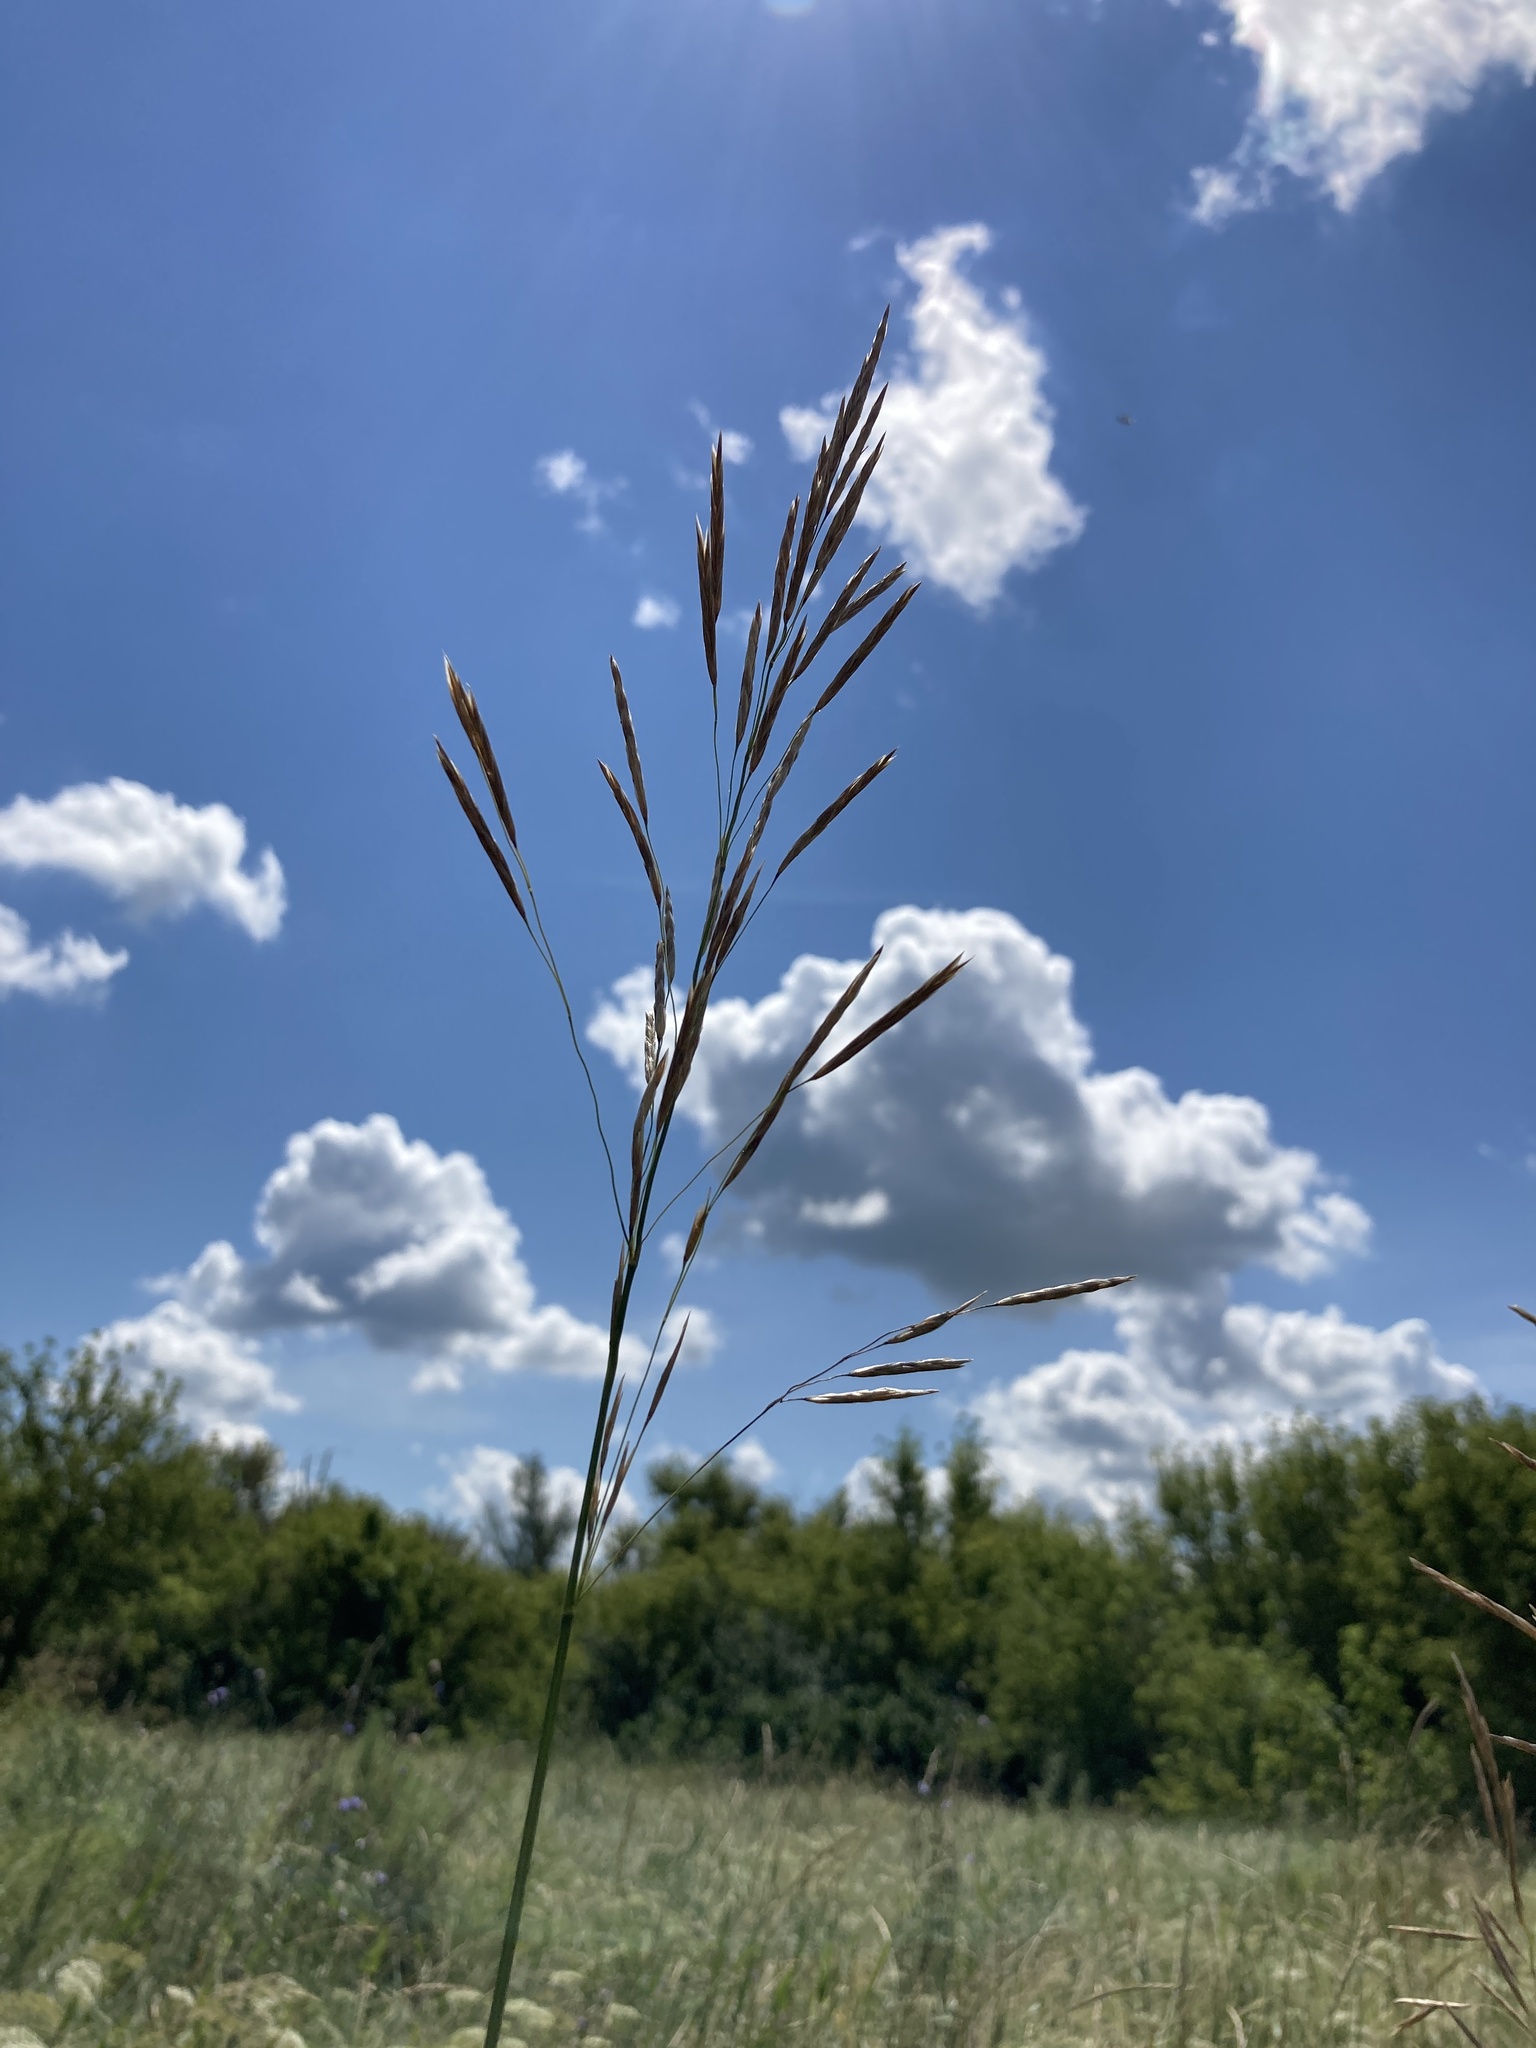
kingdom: Plantae
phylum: Tracheophyta
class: Liliopsida
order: Poales
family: Poaceae
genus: Bromus
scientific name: Bromus inermis
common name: Smooth brome
